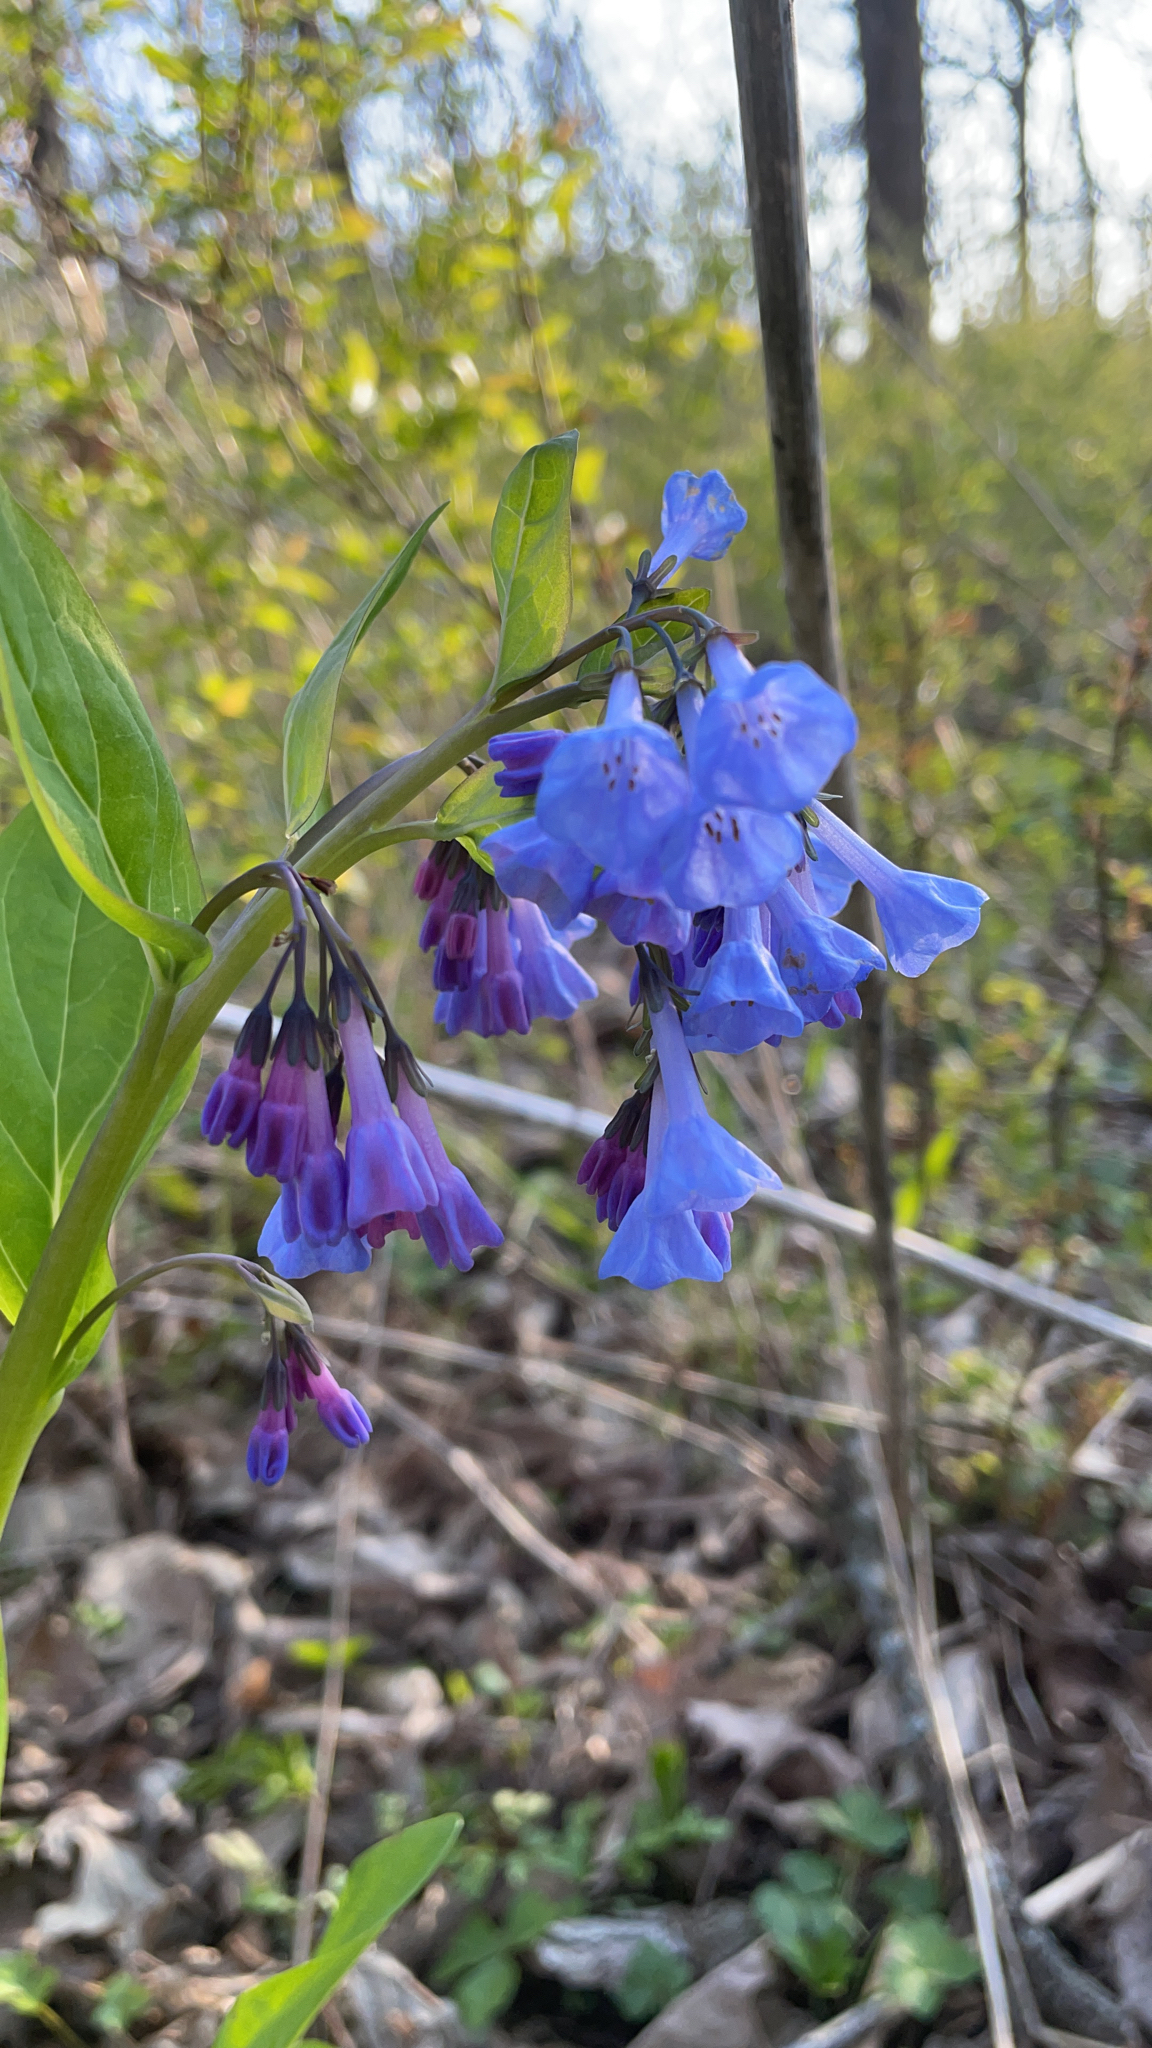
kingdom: Plantae
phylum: Tracheophyta
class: Magnoliopsida
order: Boraginales
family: Boraginaceae
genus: Mertensia
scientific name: Mertensia virginica
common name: Virginia bluebells
